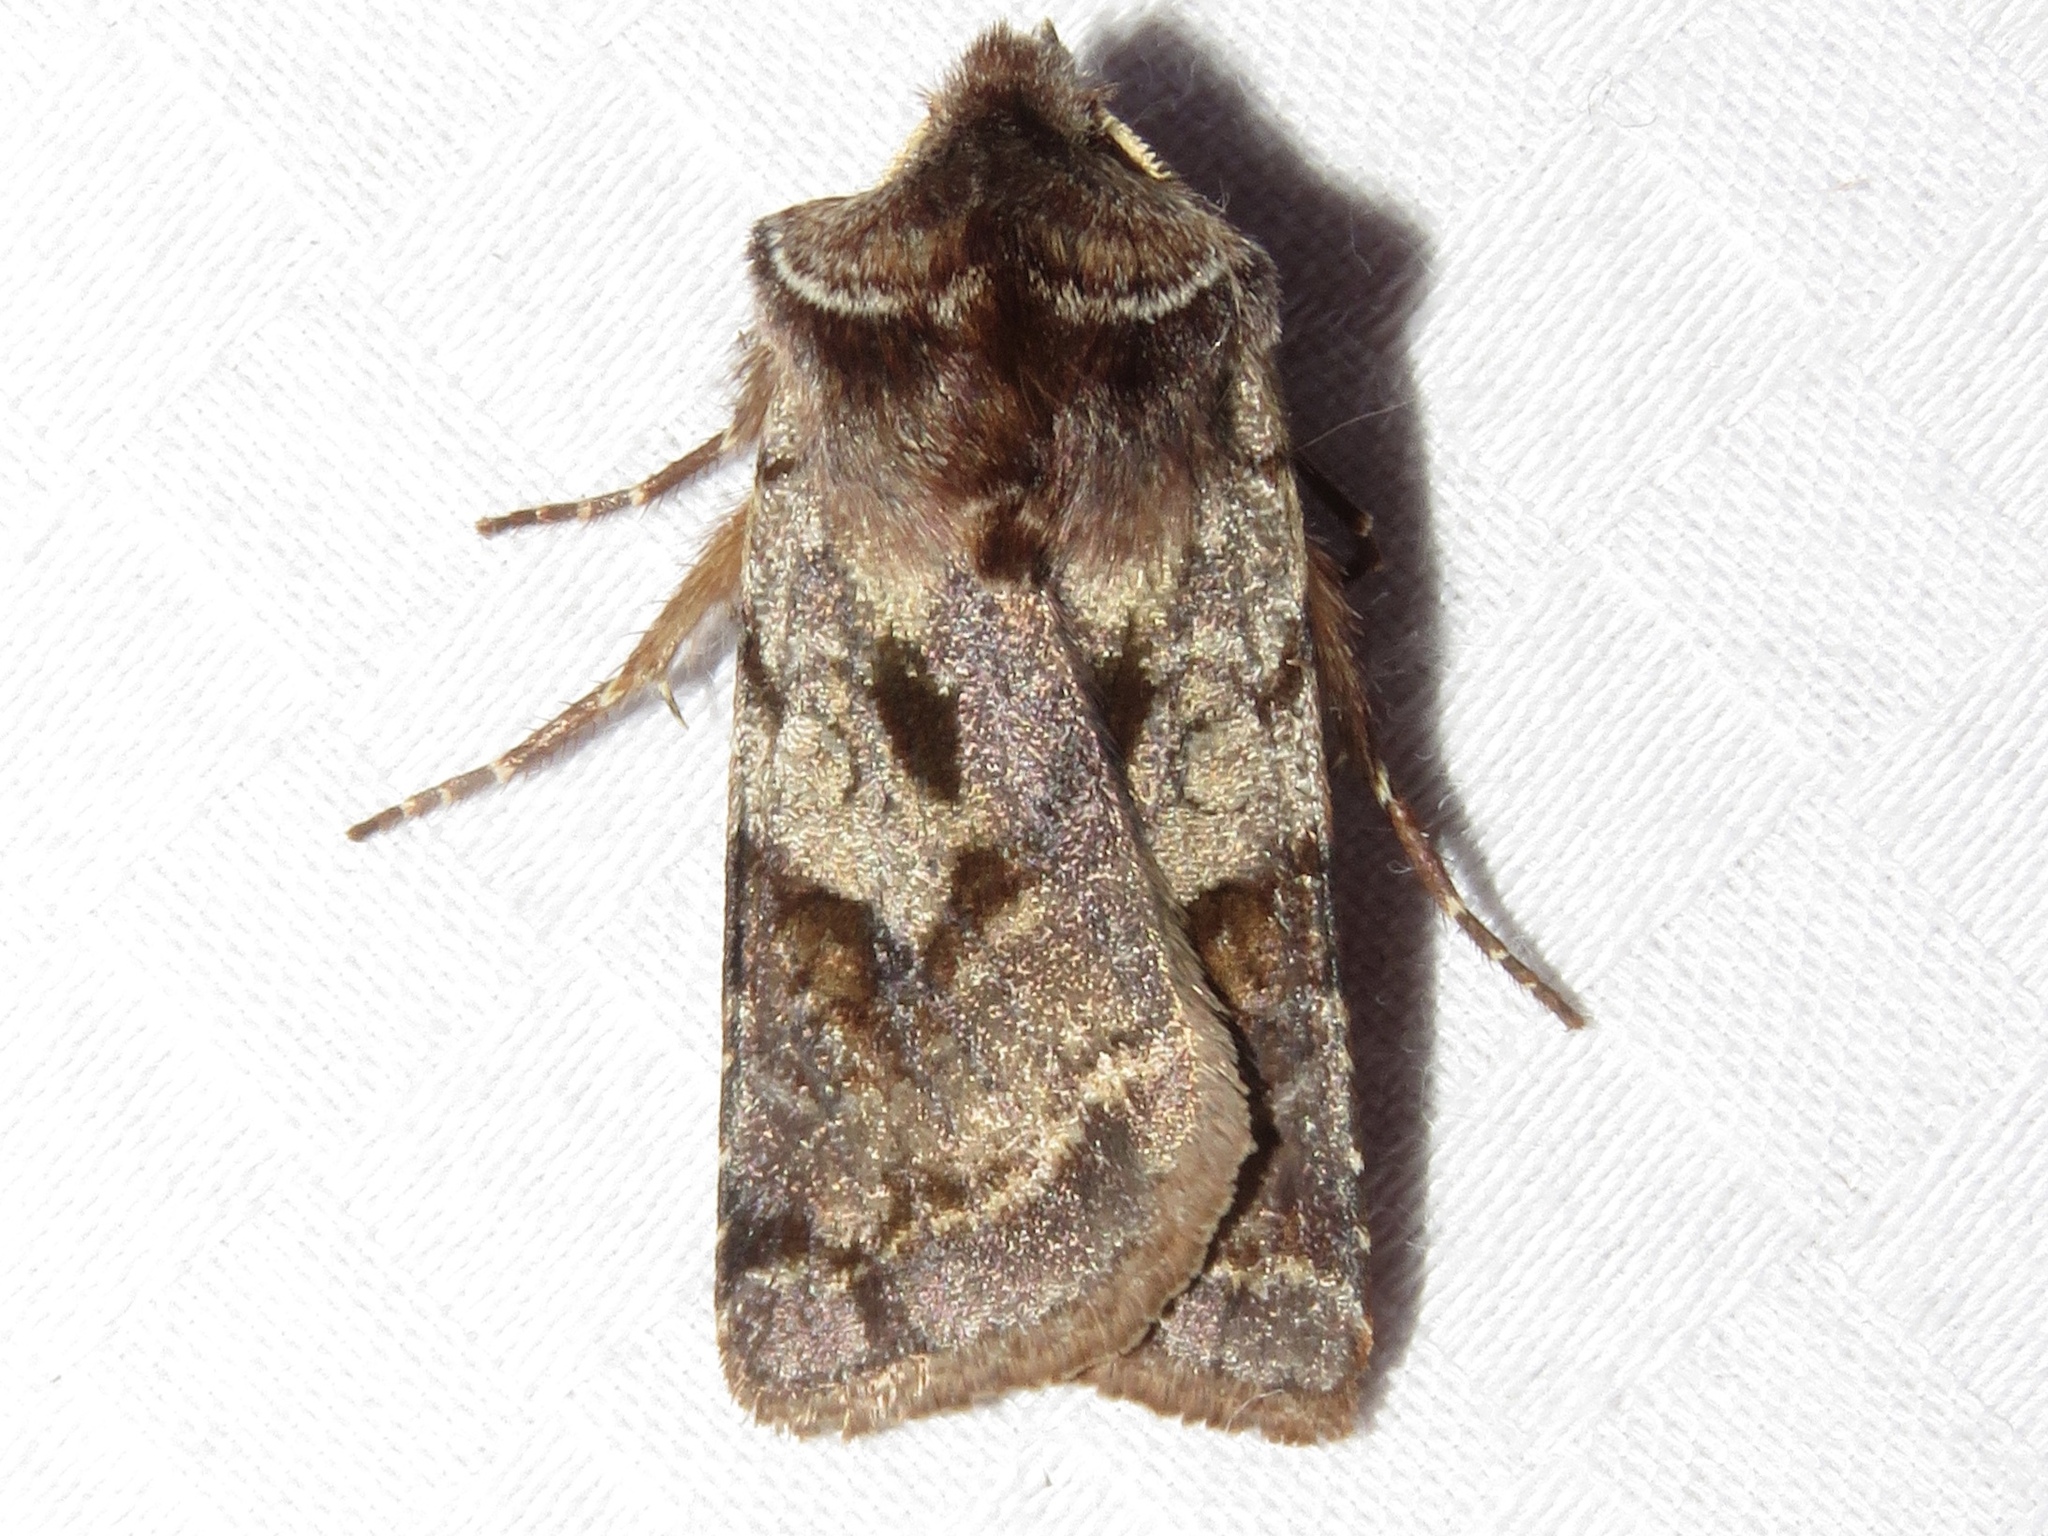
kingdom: Animalia
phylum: Arthropoda
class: Insecta
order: Lepidoptera
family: Noctuidae
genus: Cerastis
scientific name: Cerastis salicarum
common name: Willow dart
